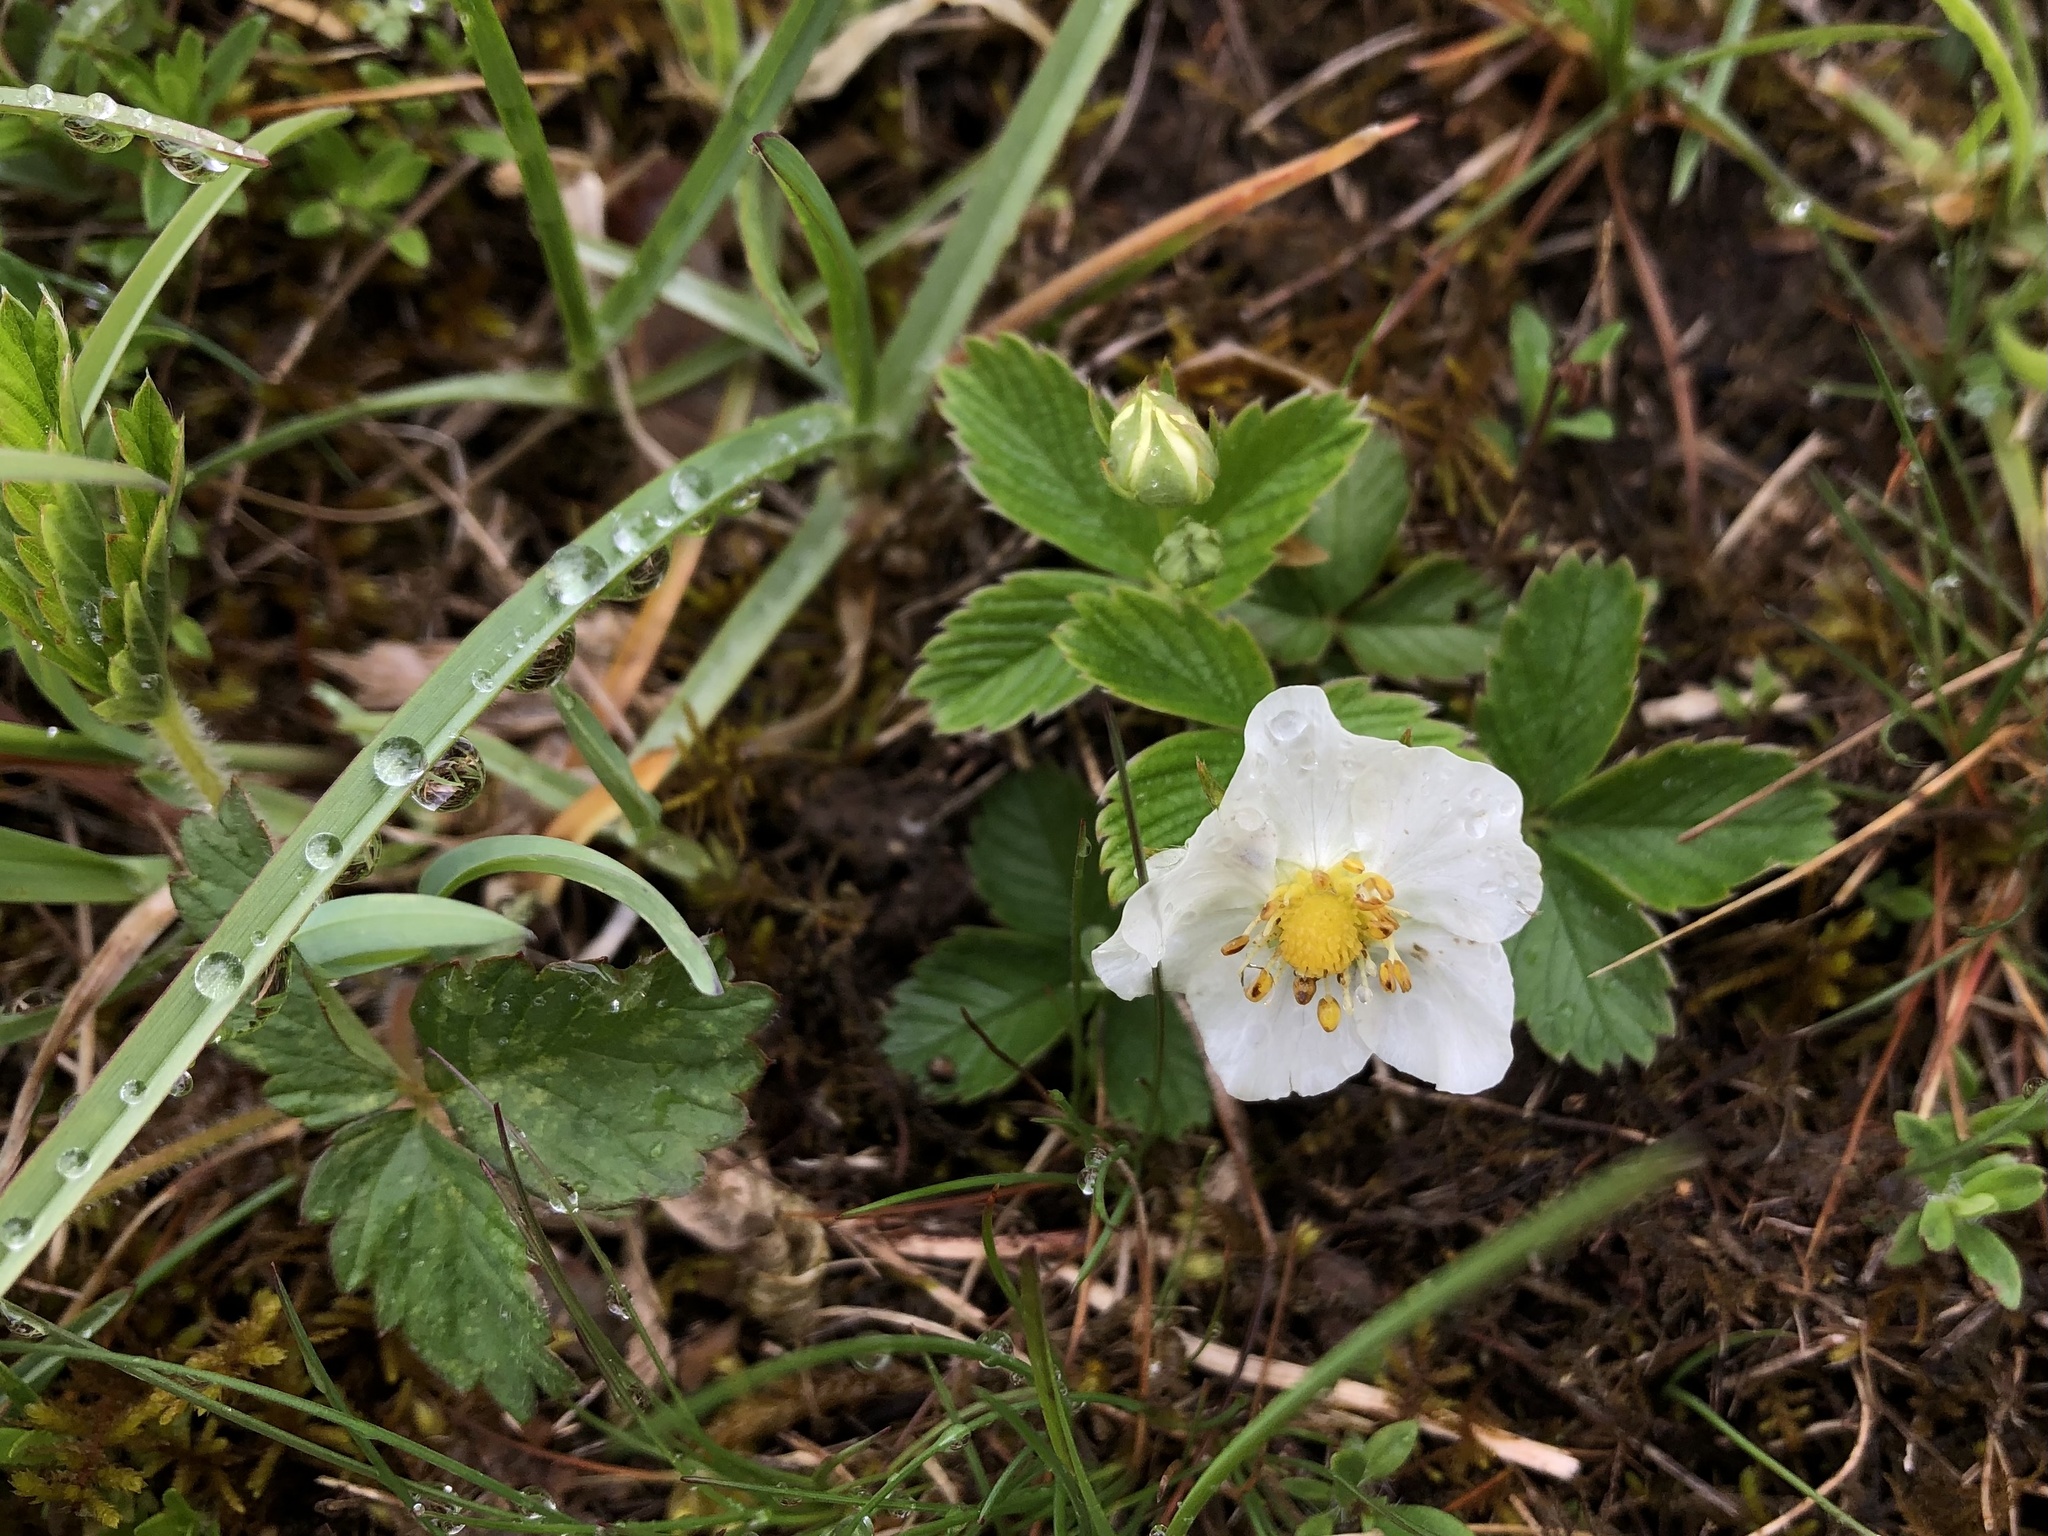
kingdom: Plantae
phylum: Tracheophyta
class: Magnoliopsida
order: Rosales
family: Rosaceae
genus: Fragaria
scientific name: Fragaria viridis
